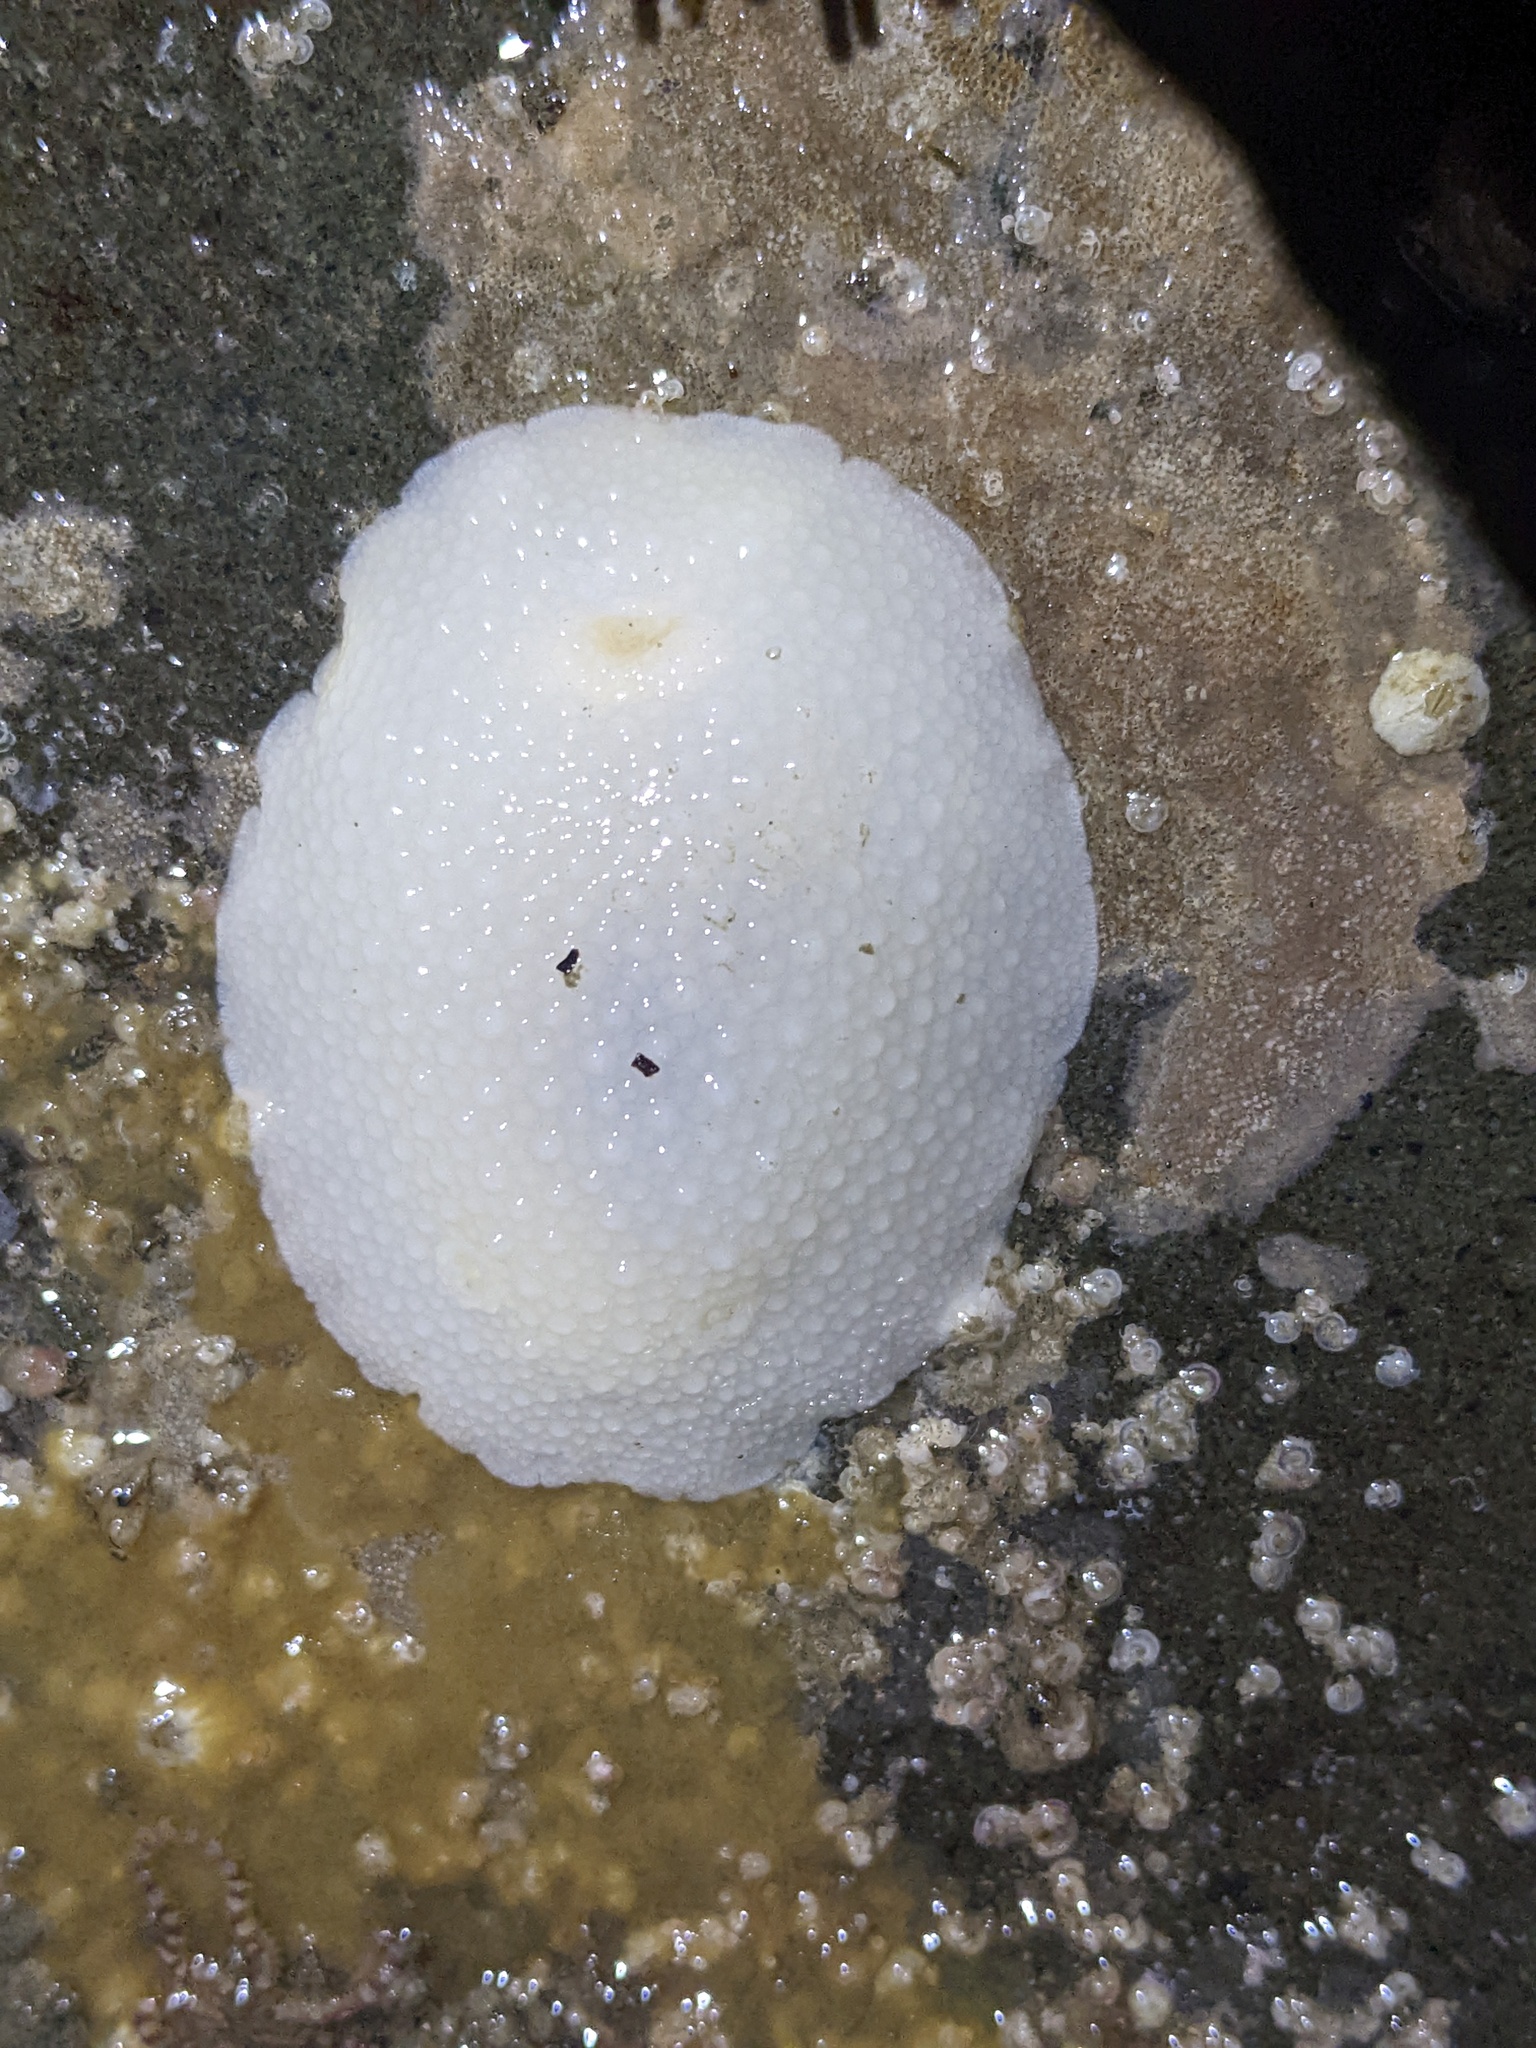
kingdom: Animalia
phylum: Mollusca
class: Gastropoda
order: Nudibranchia
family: Dorididae
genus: Doris
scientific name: Doris odhneri
